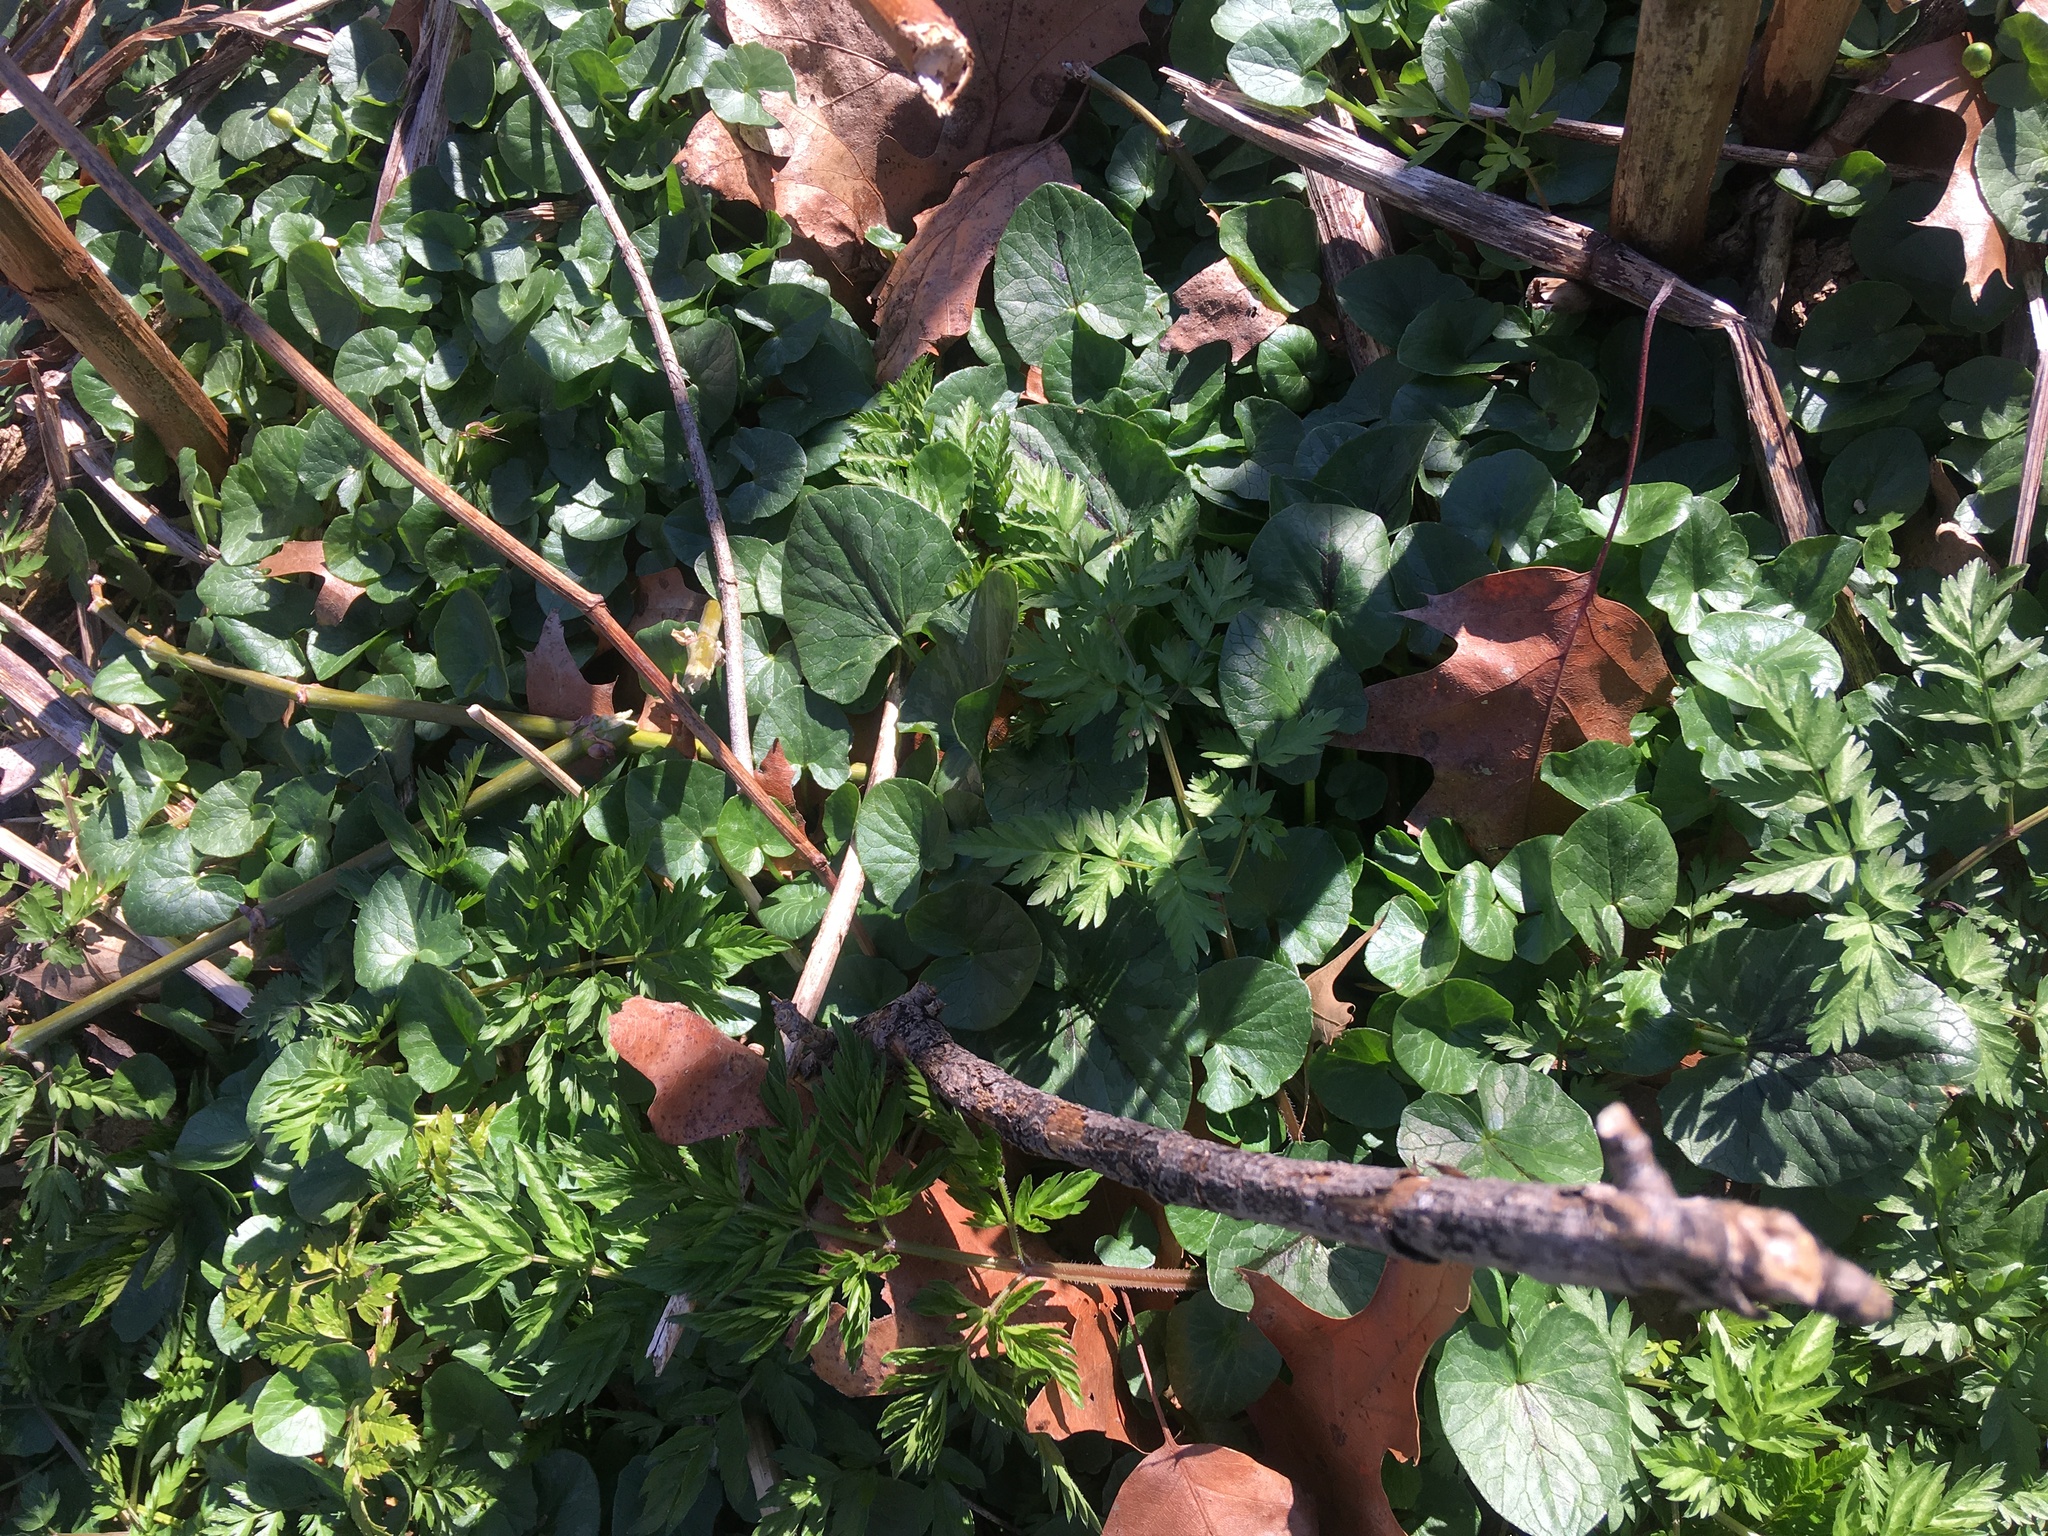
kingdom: Plantae
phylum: Tracheophyta
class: Magnoliopsida
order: Ranunculales
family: Ranunculaceae
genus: Ficaria
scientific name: Ficaria verna
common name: Lesser celandine
